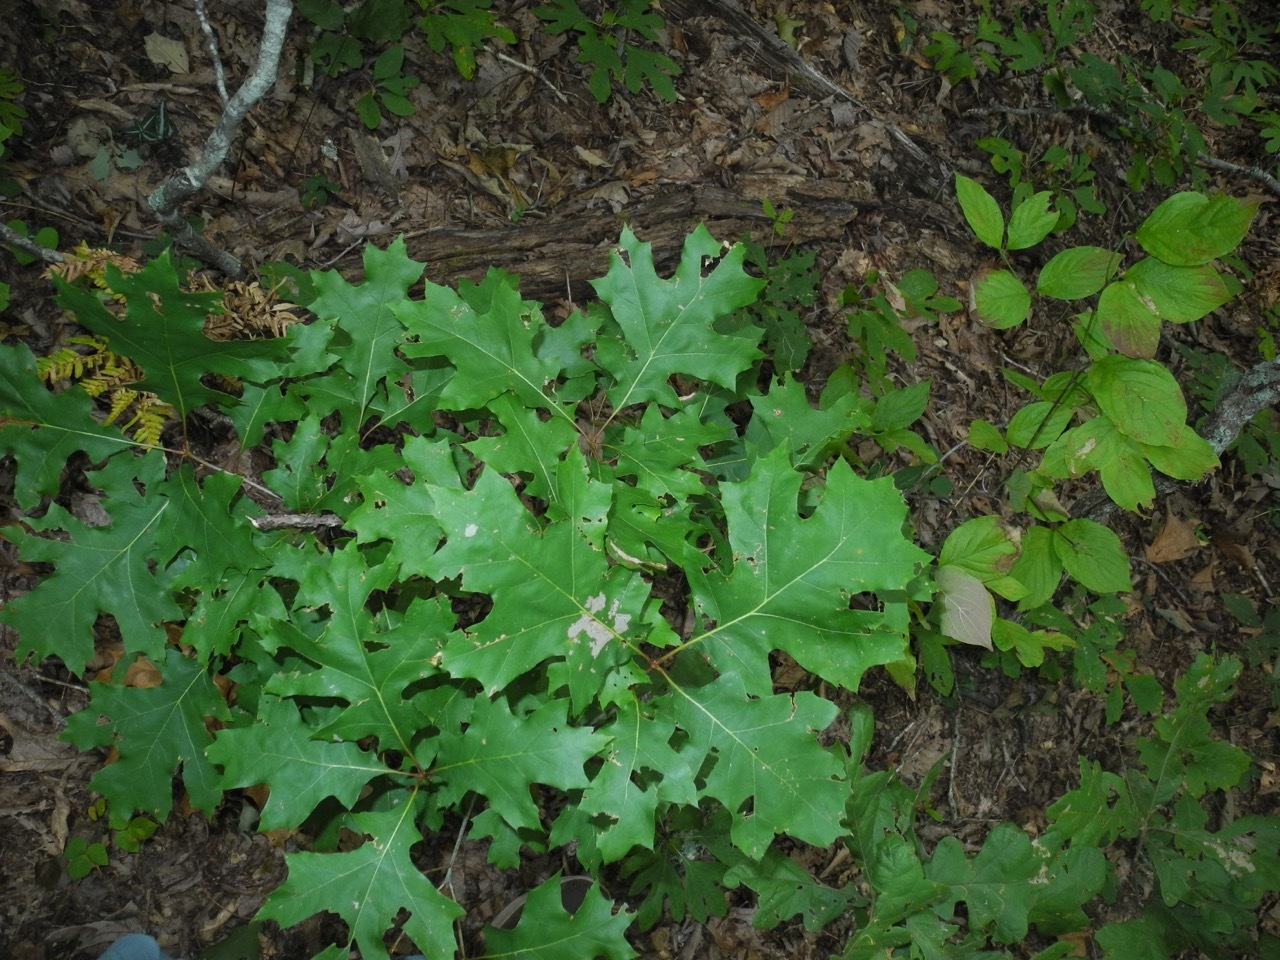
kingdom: Plantae
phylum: Tracheophyta
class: Magnoliopsida
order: Fagales
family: Fagaceae
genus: Quercus
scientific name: Quercus velutina
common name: Black oak
